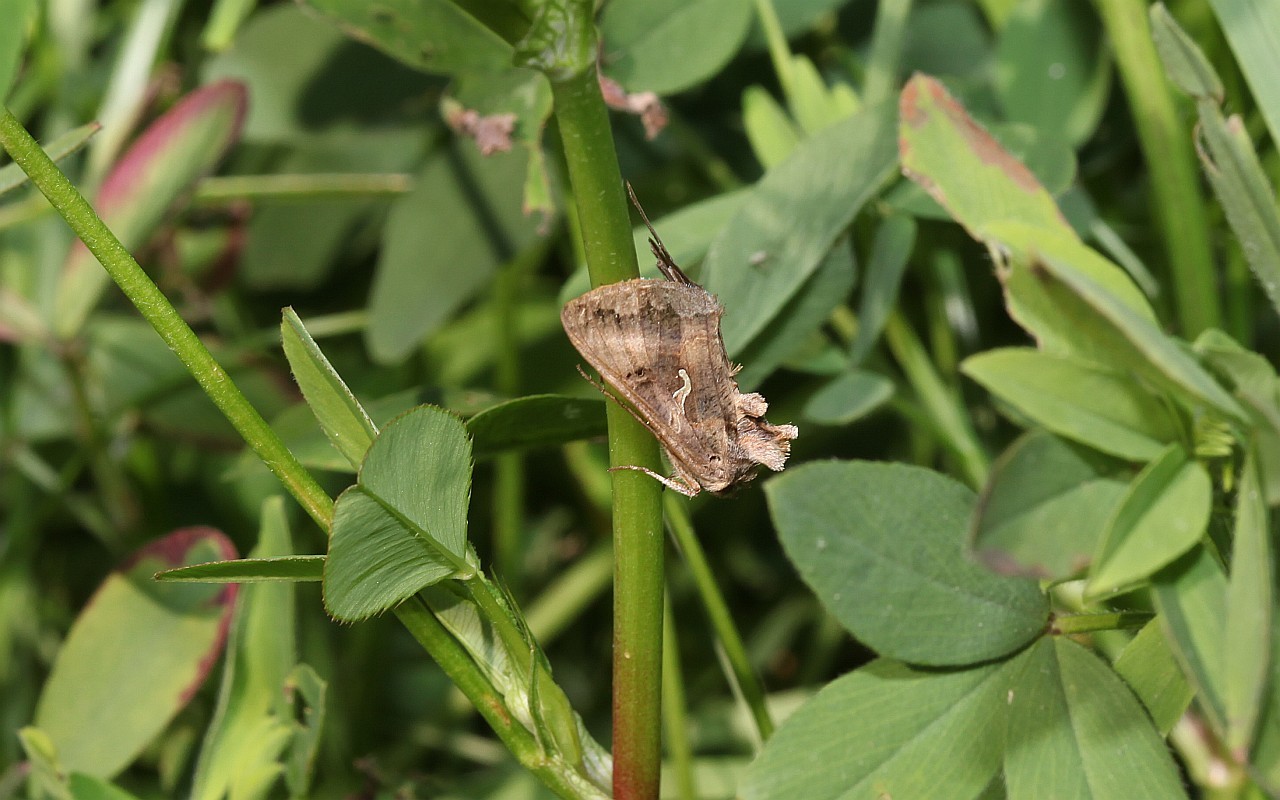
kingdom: Animalia
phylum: Arthropoda
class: Insecta
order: Lepidoptera
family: Noctuidae
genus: Autographa
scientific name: Autographa gamma
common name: Silver y
